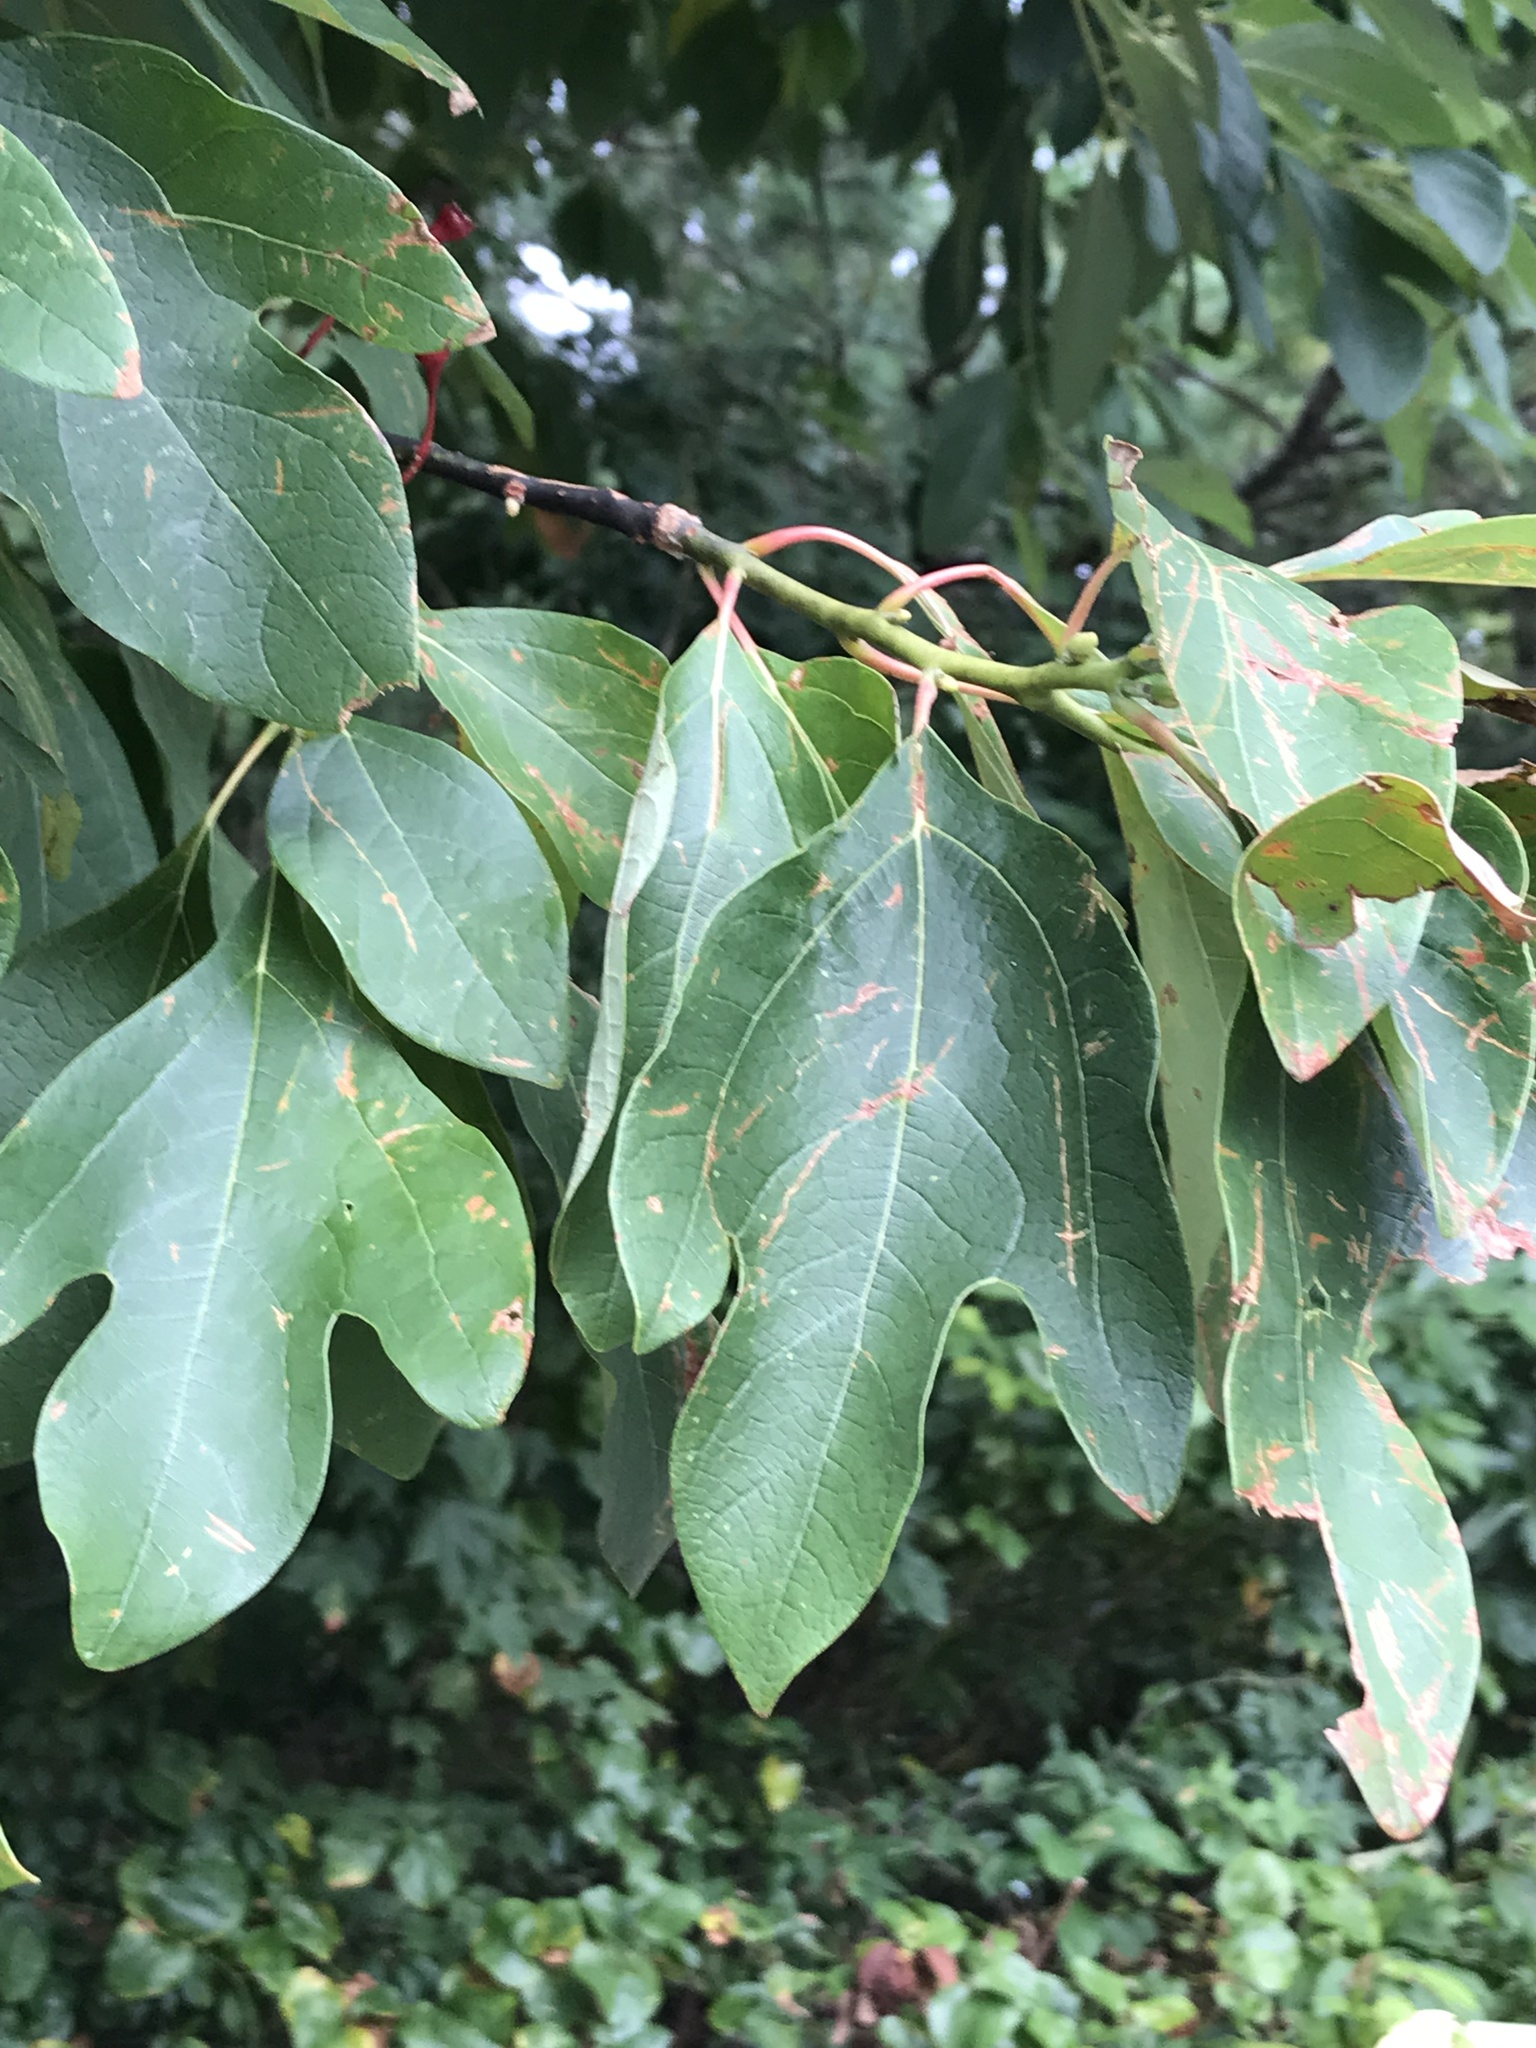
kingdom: Plantae
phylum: Tracheophyta
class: Magnoliopsida
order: Laurales
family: Lauraceae
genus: Sassafras
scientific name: Sassafras albidum
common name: Sassafras
